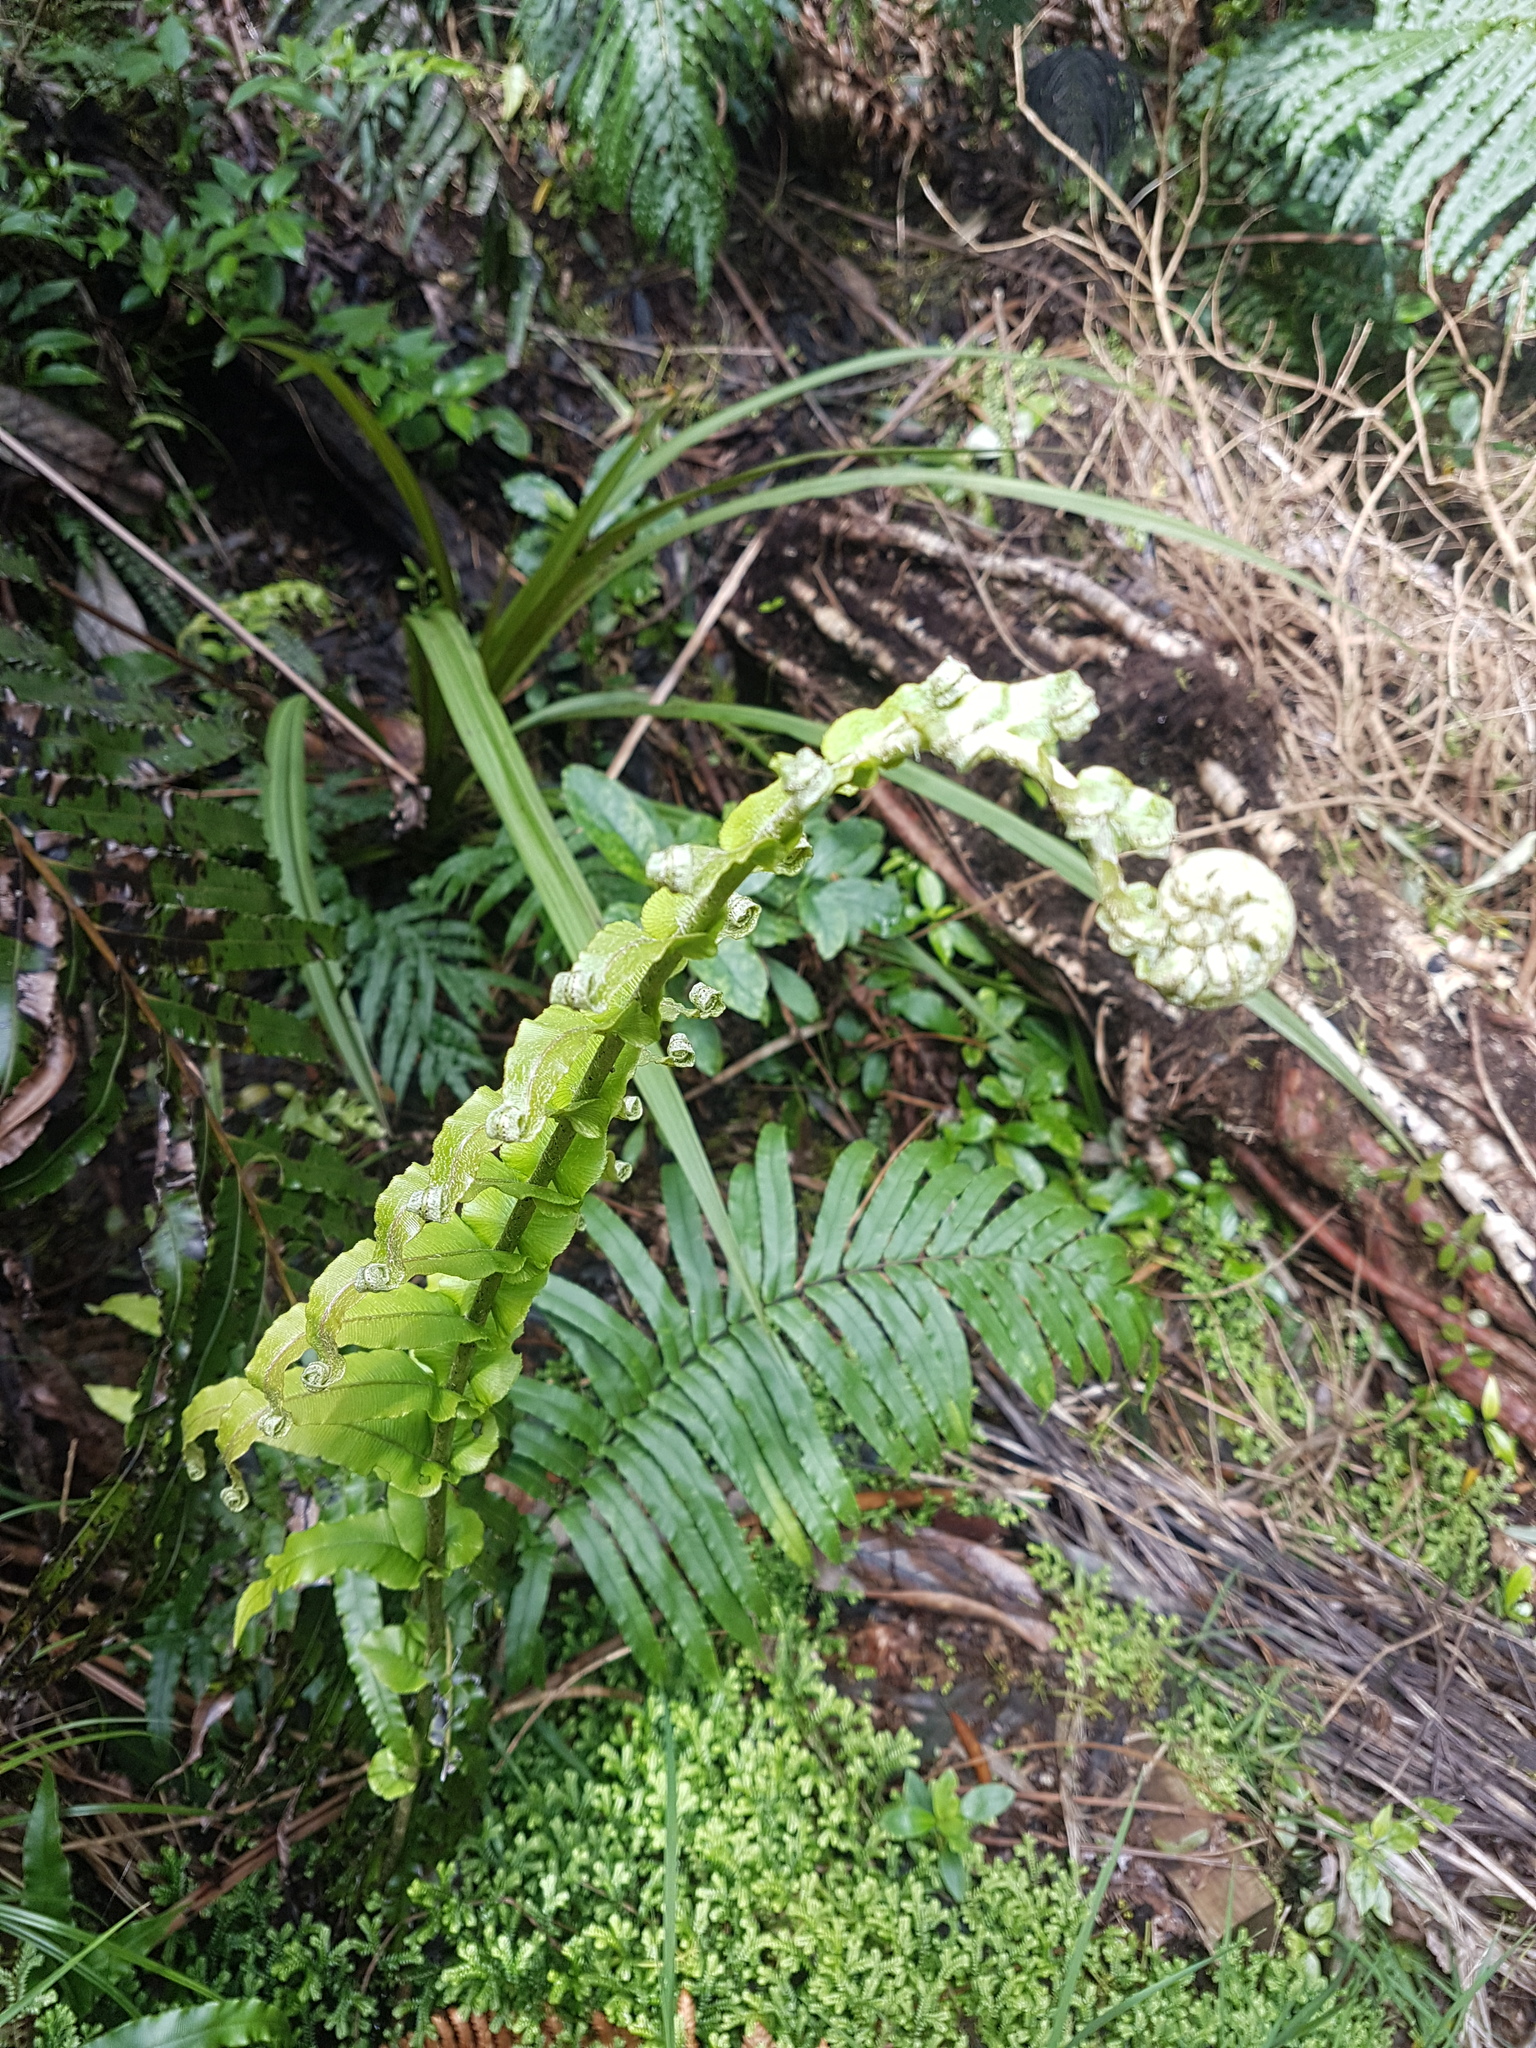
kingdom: Plantae
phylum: Tracheophyta
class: Polypodiopsida
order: Polypodiales
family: Blechnaceae
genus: Parablechnum
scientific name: Parablechnum novae-zelandiae
